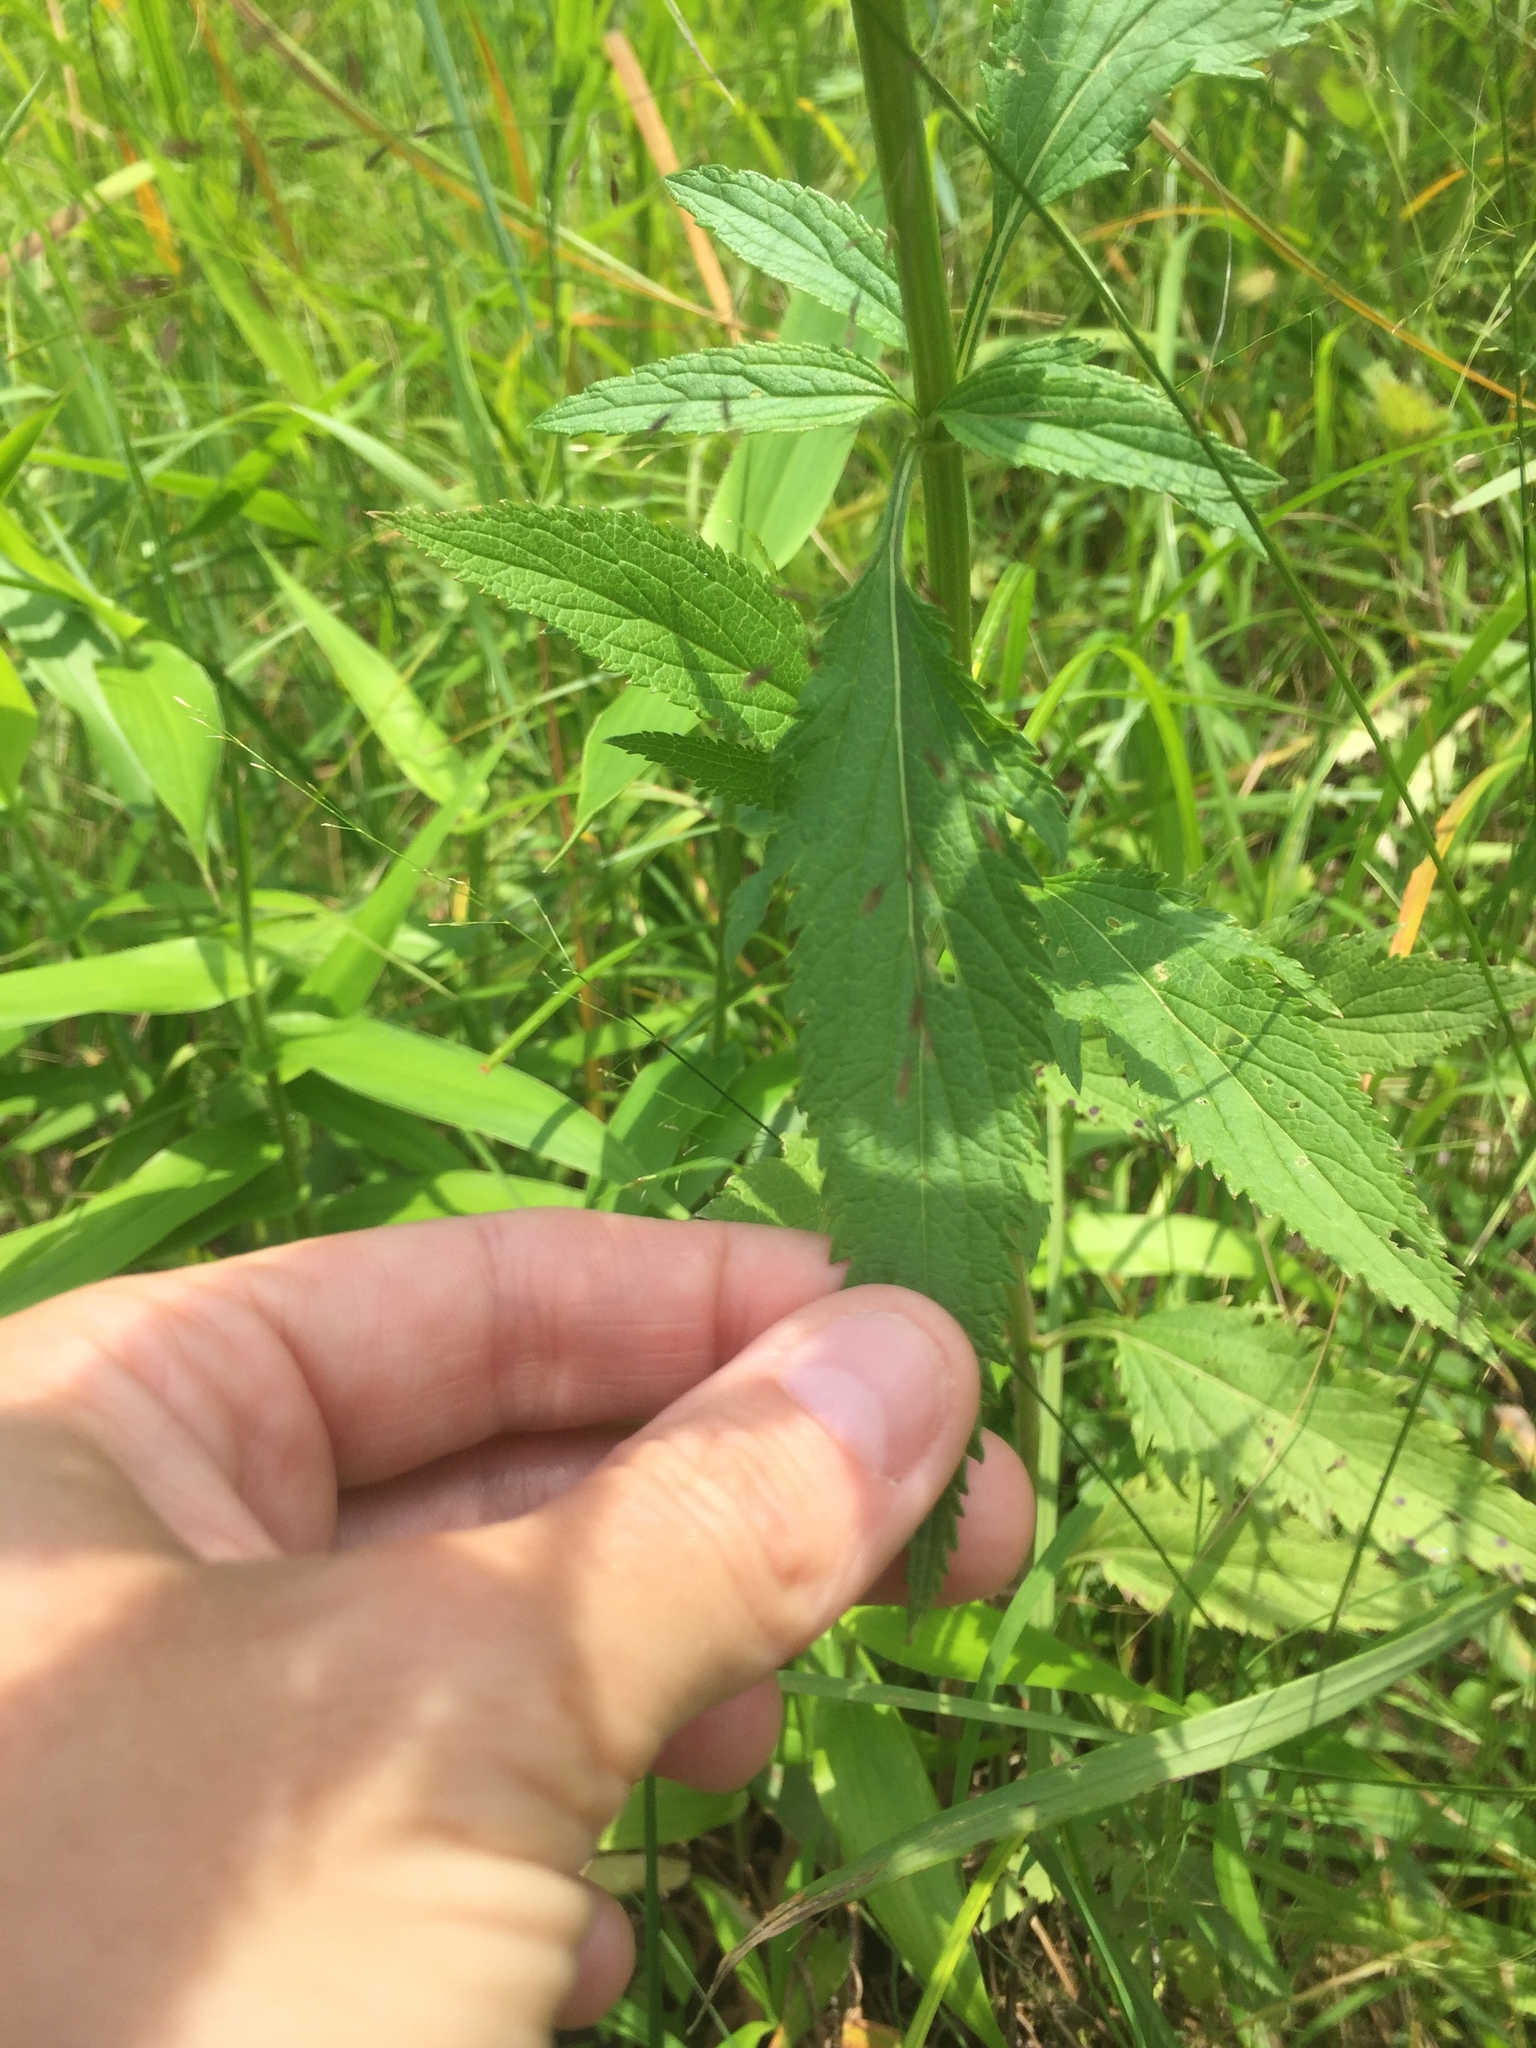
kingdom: Plantae
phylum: Tracheophyta
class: Magnoliopsida
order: Lamiales
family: Verbenaceae
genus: Verbena
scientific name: Verbena hastata
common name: American blue vervain
